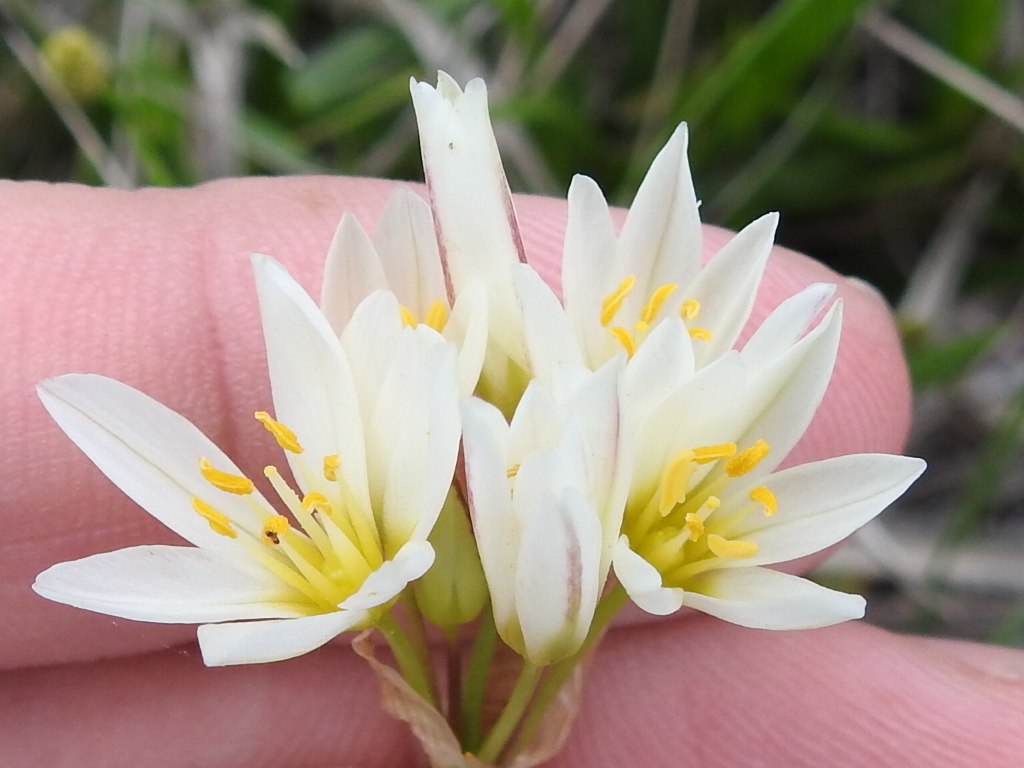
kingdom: Plantae
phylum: Tracheophyta
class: Liliopsida
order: Asparagales
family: Amaryllidaceae
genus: Nothoscordum
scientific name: Nothoscordum bivalve
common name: Crow-poison
